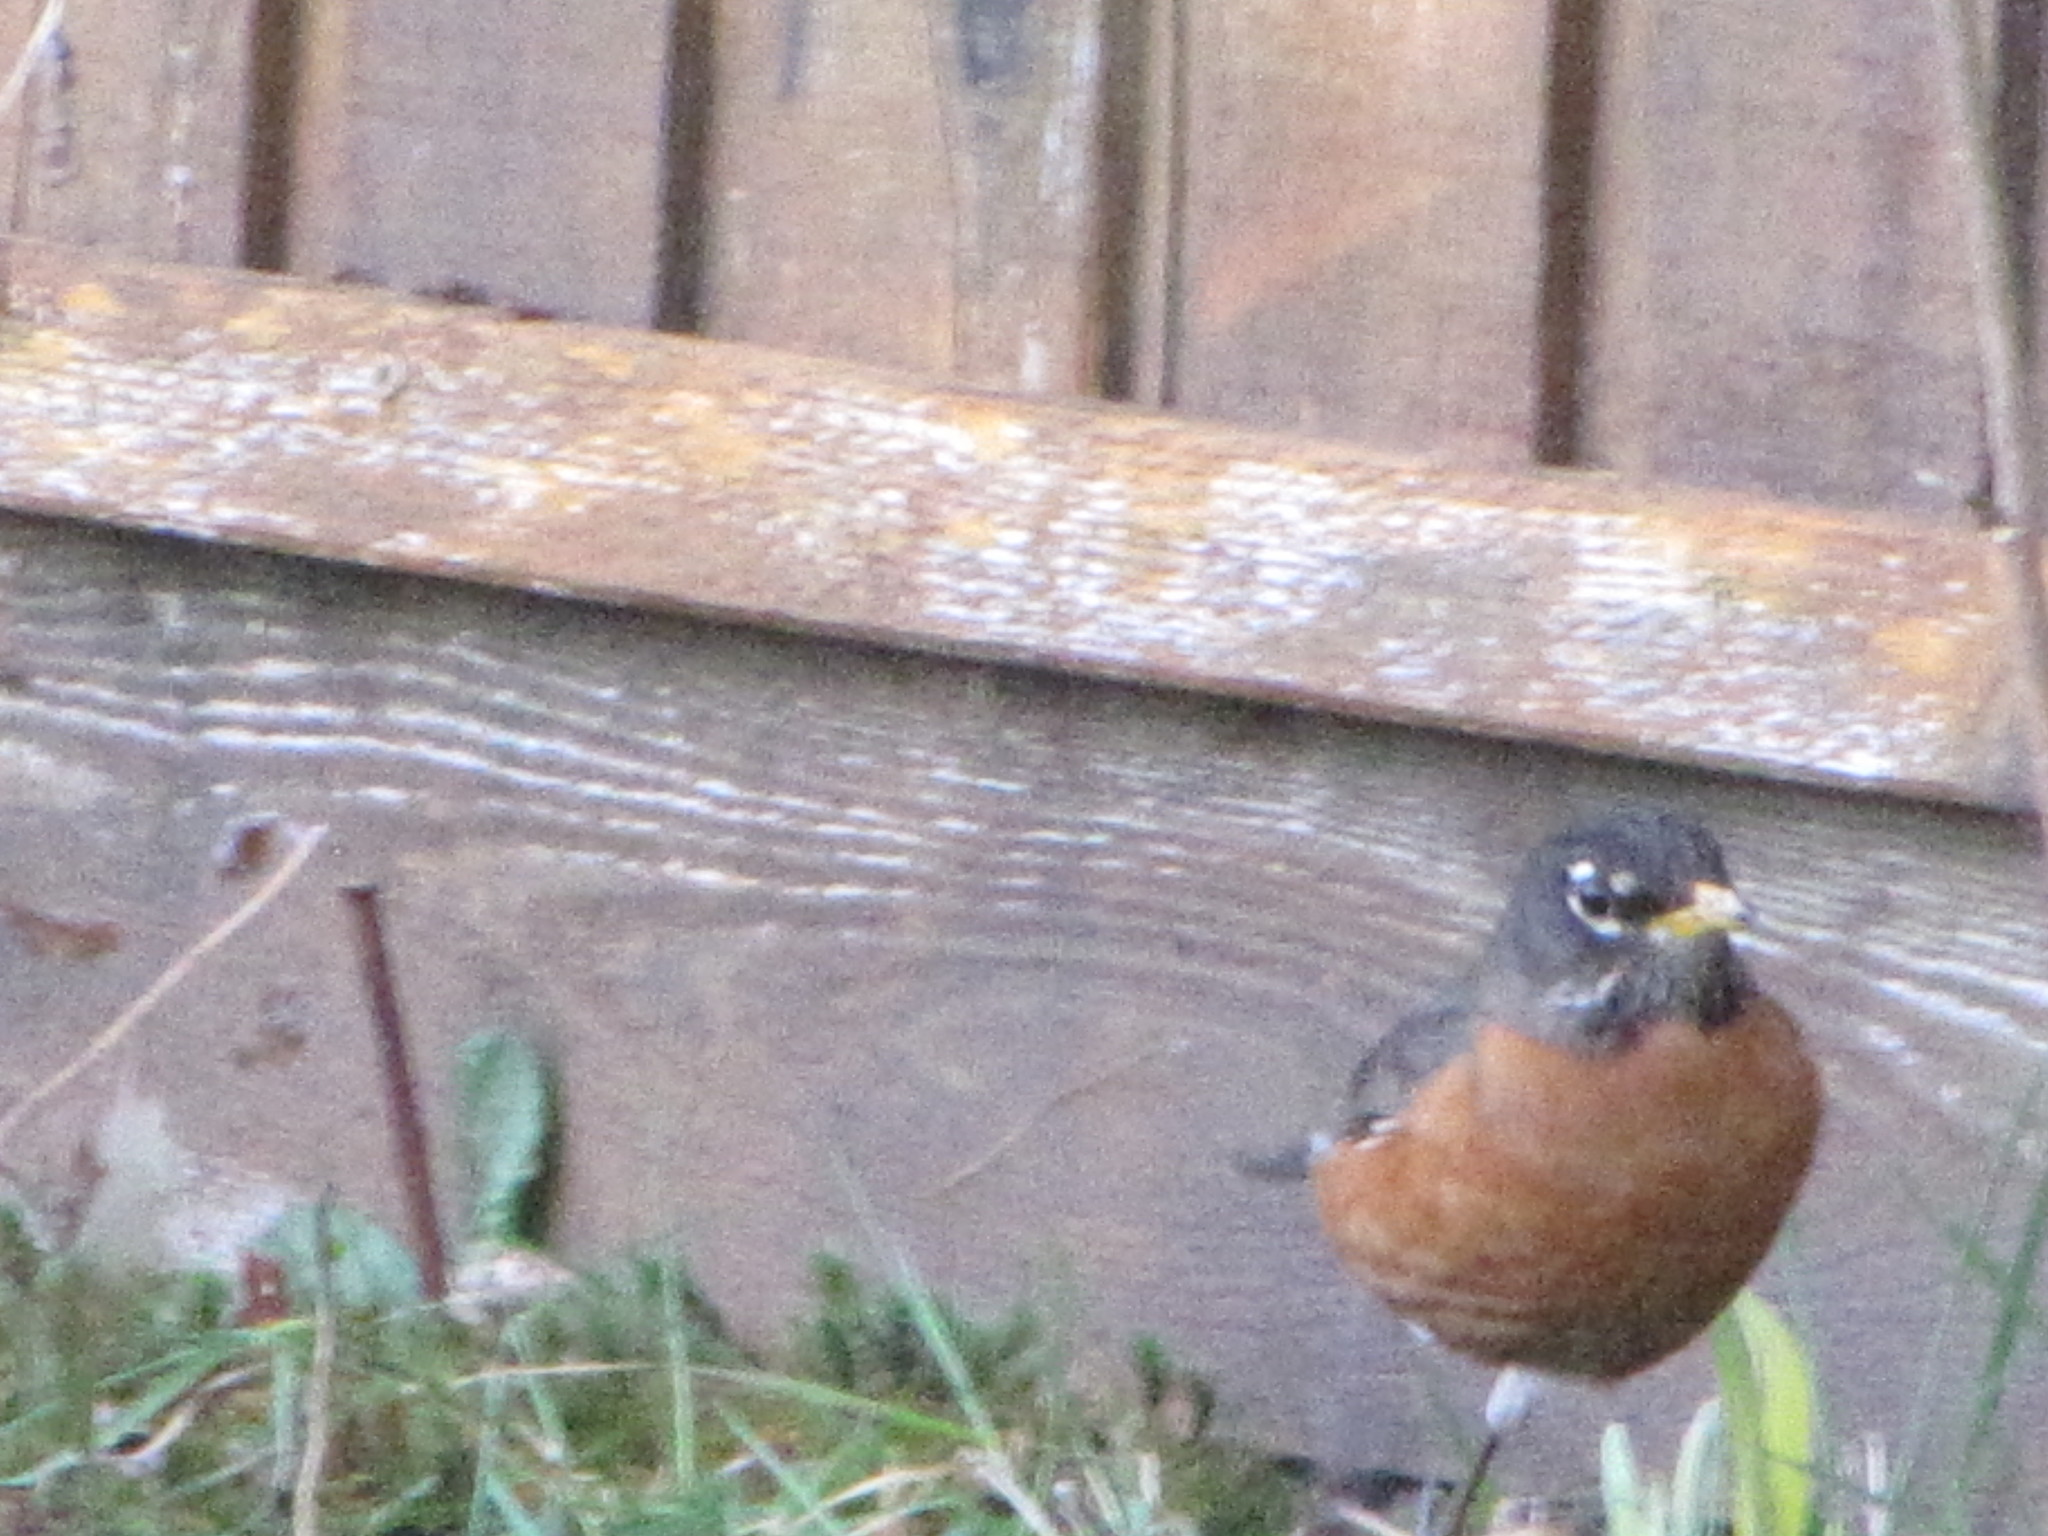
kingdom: Animalia
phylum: Chordata
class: Aves
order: Passeriformes
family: Turdidae
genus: Turdus
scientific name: Turdus migratorius
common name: American robin
